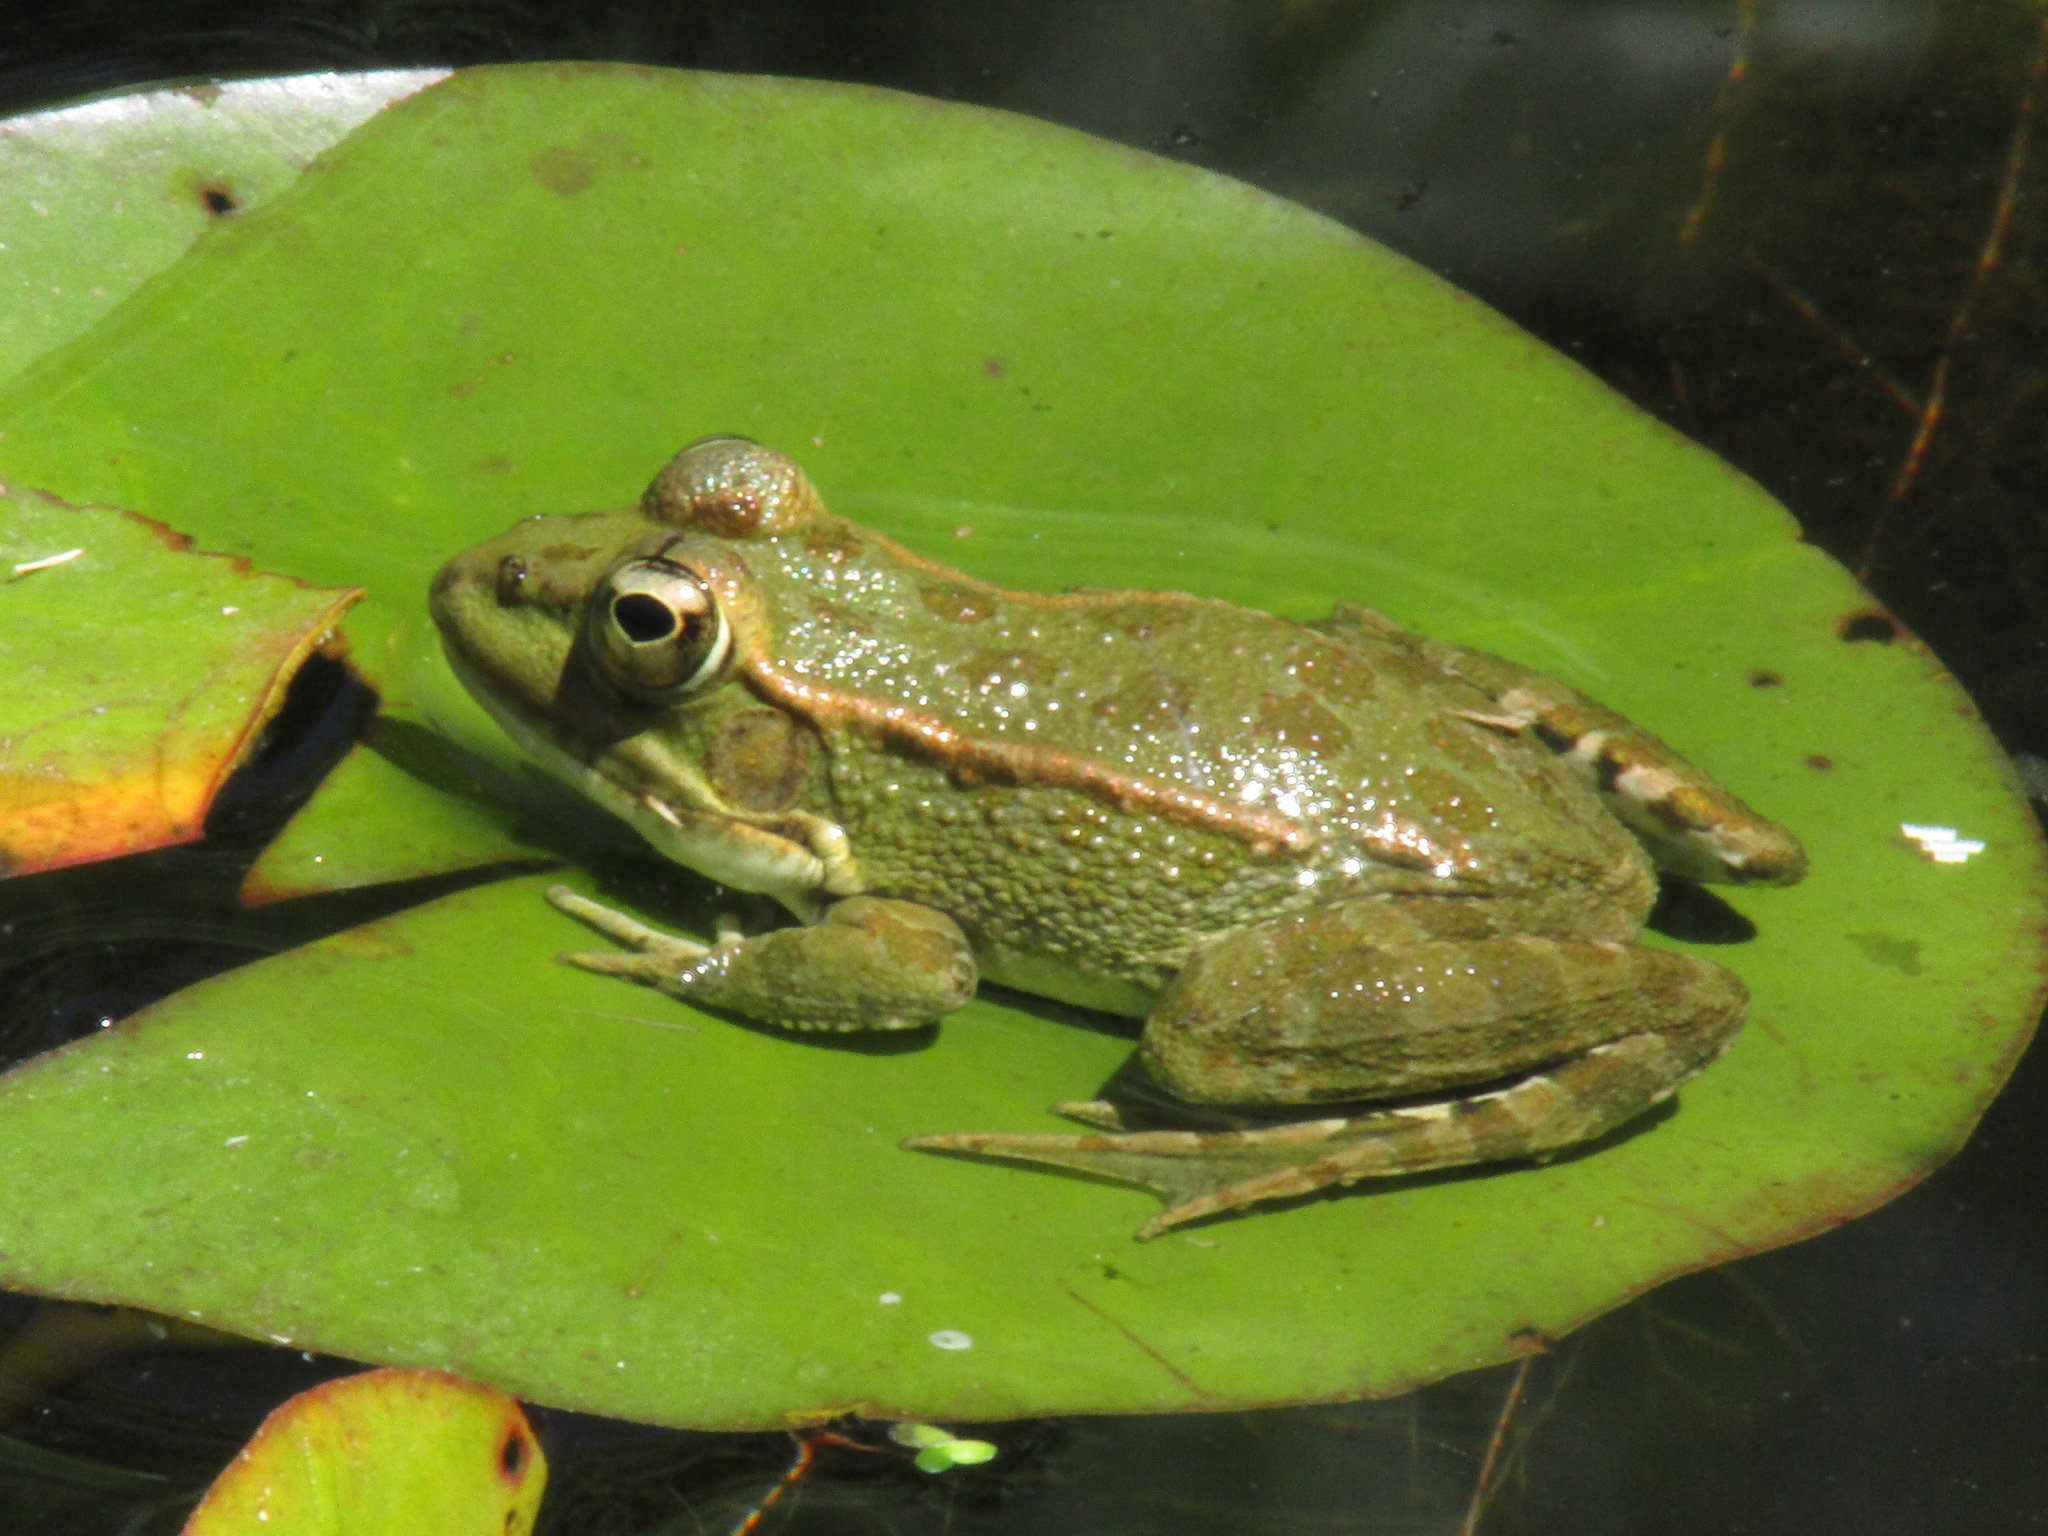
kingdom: Animalia
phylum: Chordata
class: Amphibia
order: Anura
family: Ranidae
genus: Pelophylax
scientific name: Pelophylax perezi
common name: Perez's frog
